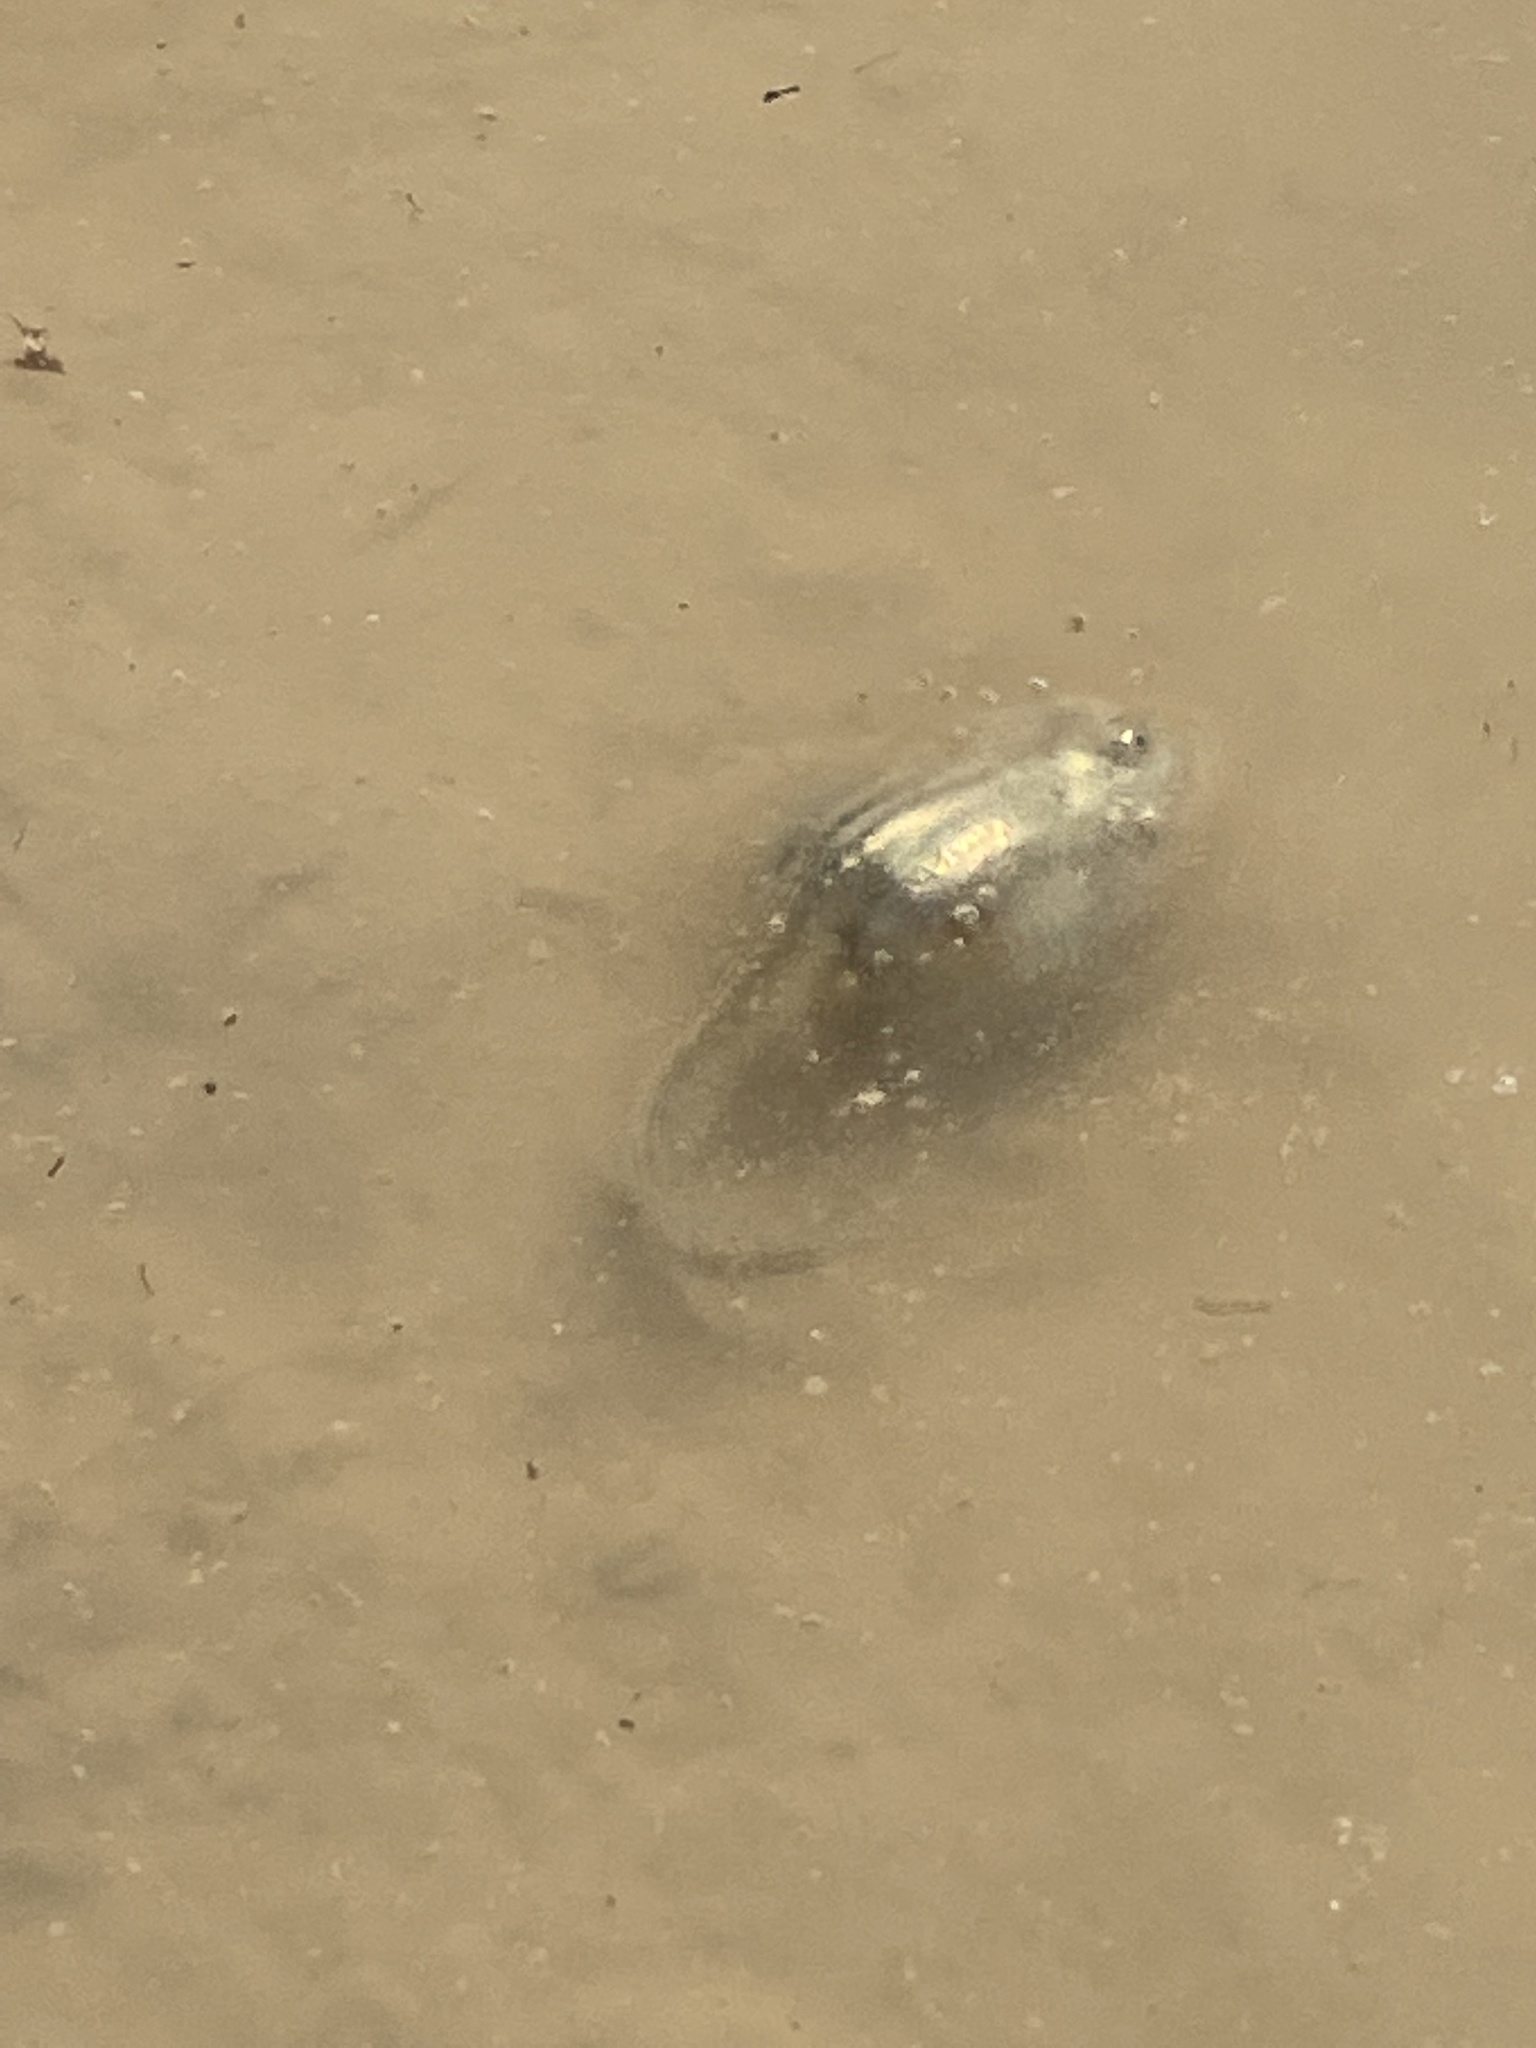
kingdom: Animalia
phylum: Chordata
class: Amphibia
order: Anura
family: Scaphiopodidae
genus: Spea
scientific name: Spea multiplicata
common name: Mexican spadefoot
